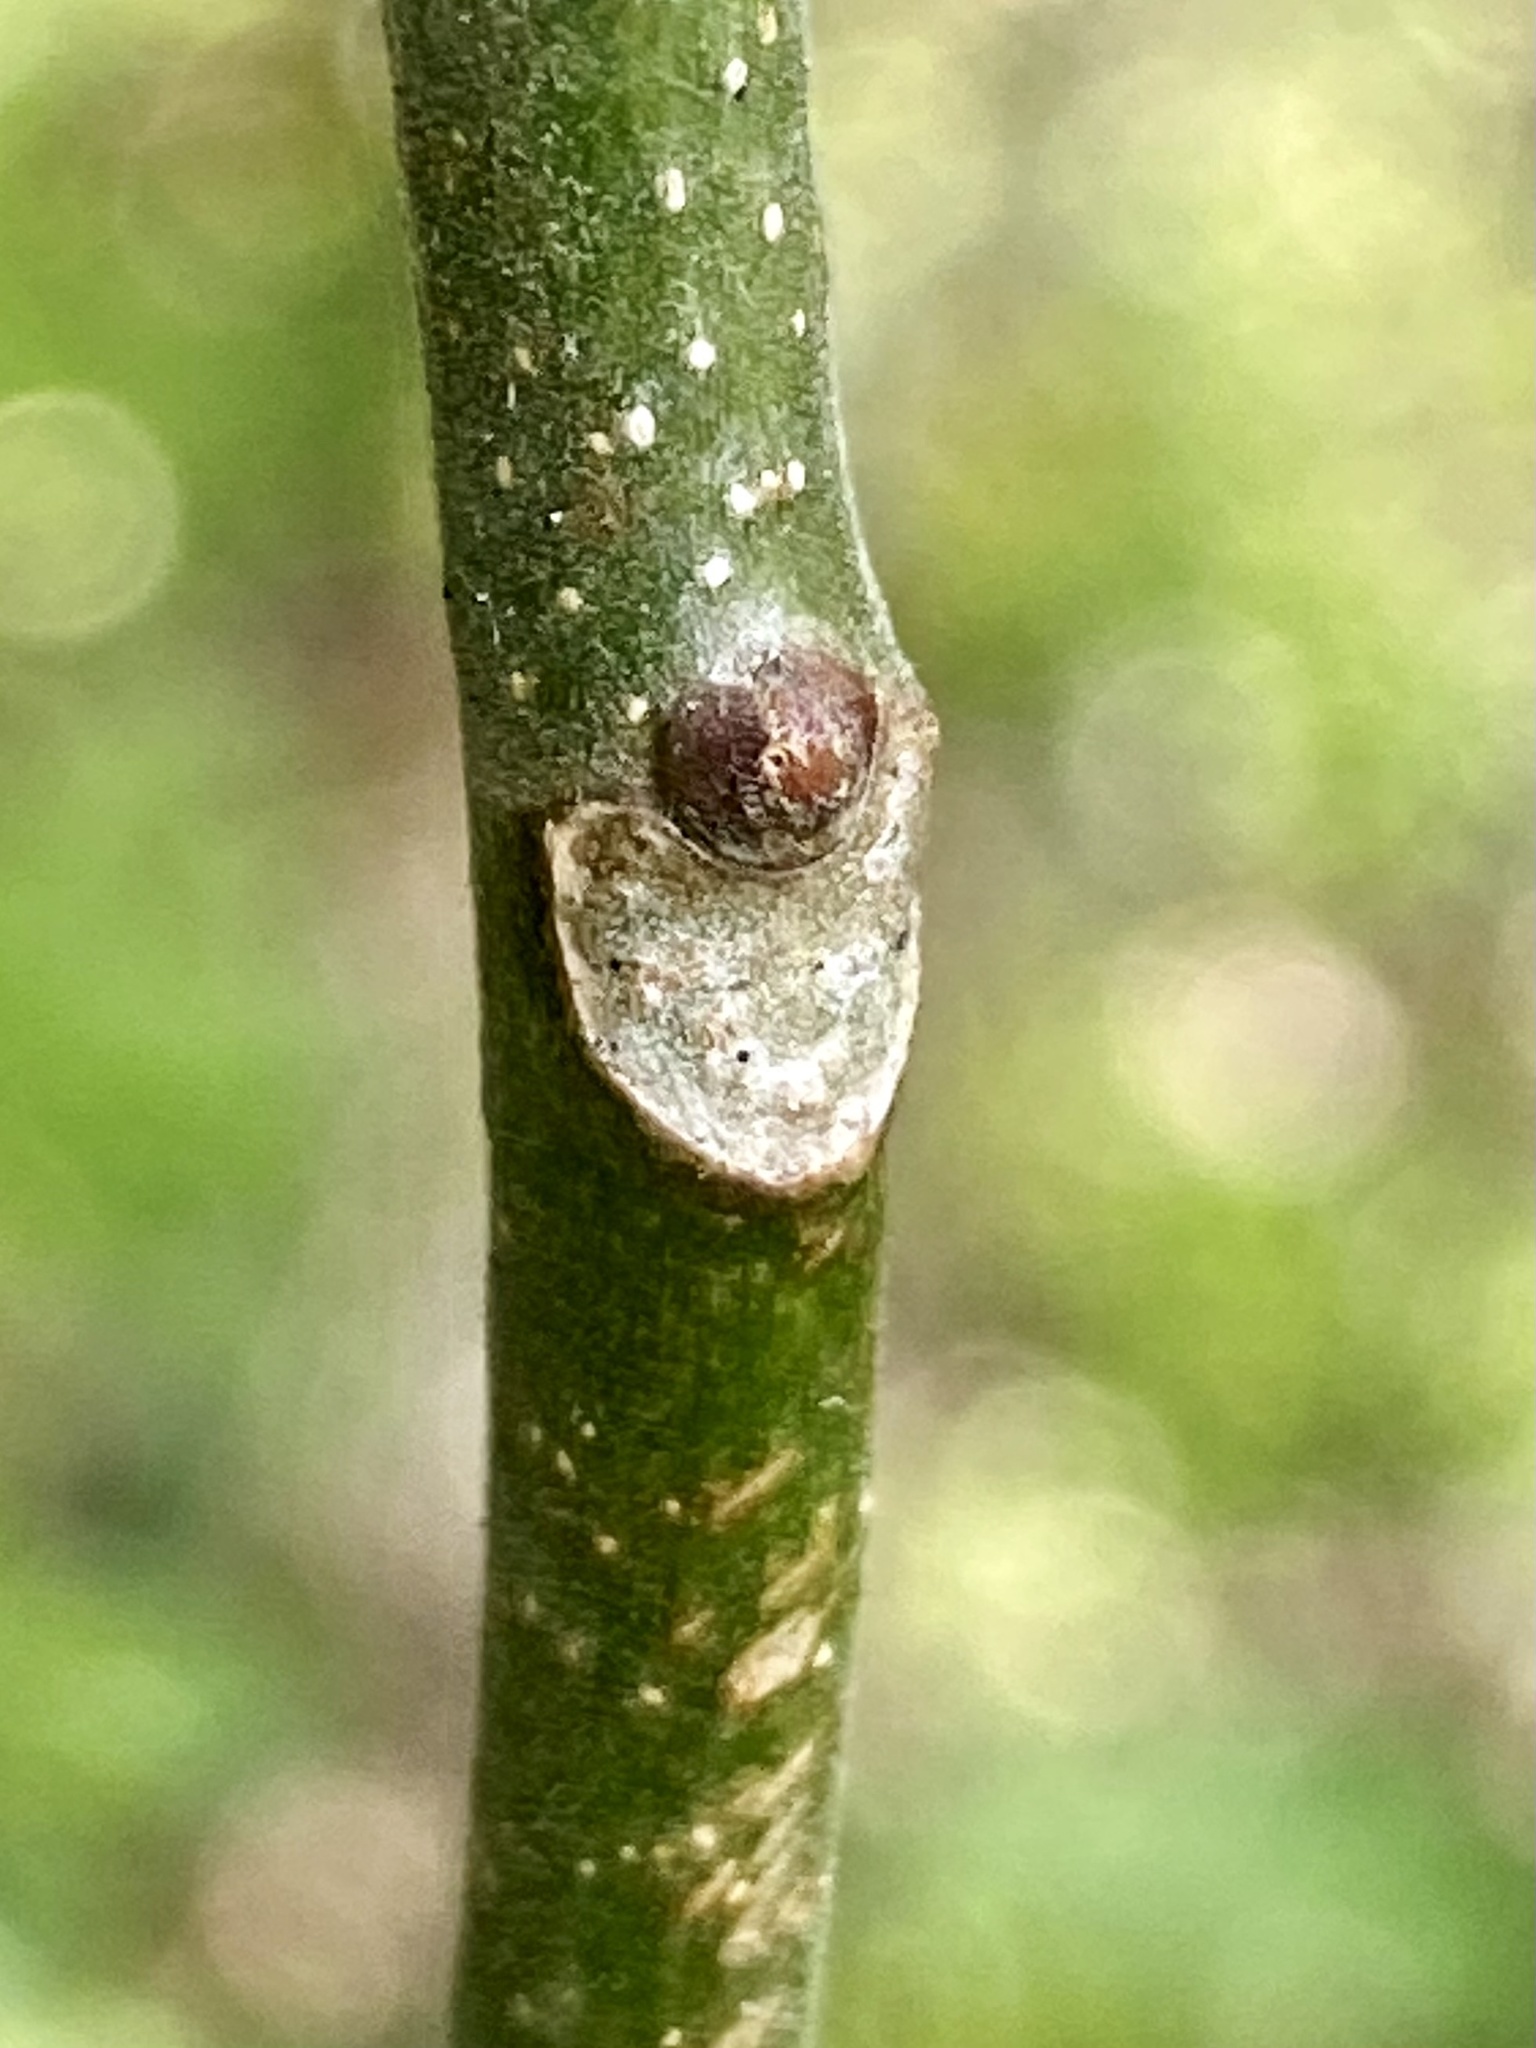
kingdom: Plantae
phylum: Tracheophyta
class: Magnoliopsida
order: Sapindales
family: Simaroubaceae
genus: Ailanthus
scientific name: Ailanthus altissima
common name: Tree-of-heaven
